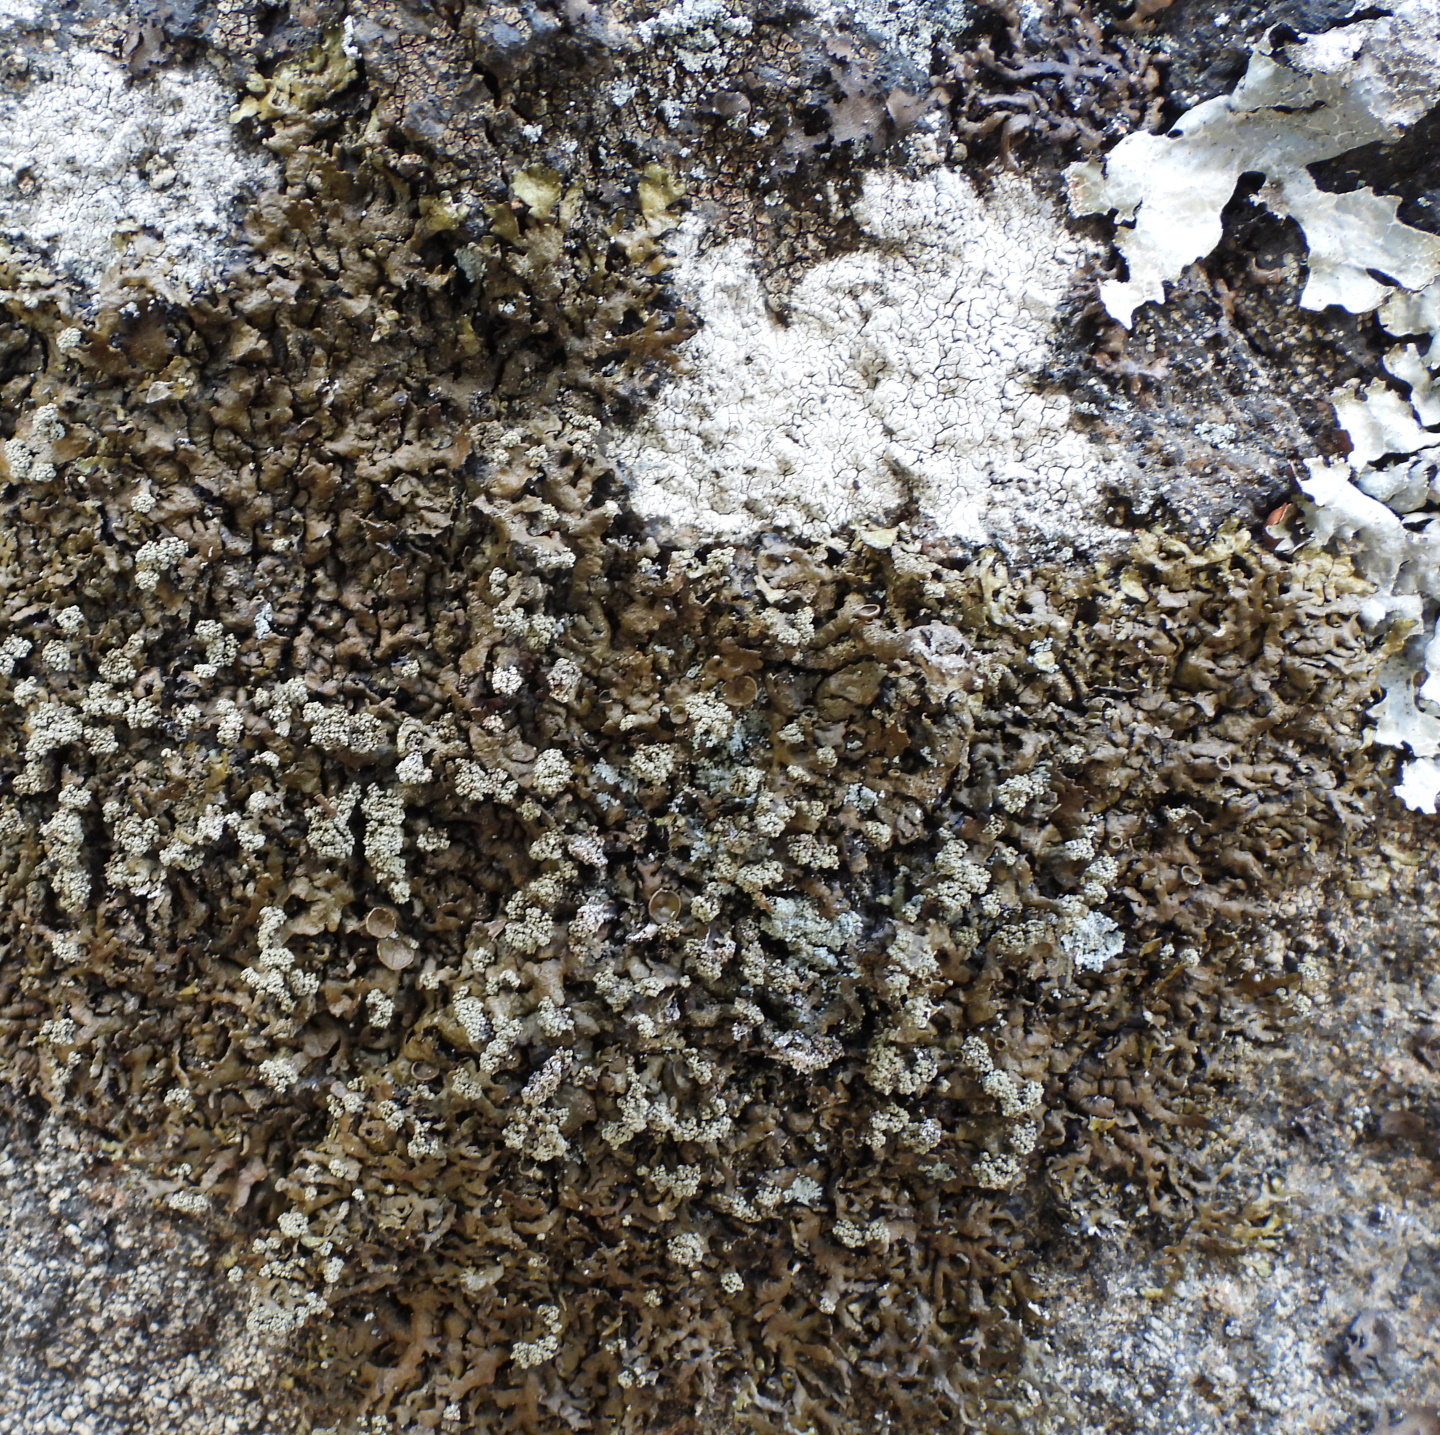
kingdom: Fungi
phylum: Ascomycota
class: Lecanoromycetes
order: Lecanorales
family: Parmeliaceae
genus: Xanthoparmelia
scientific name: Xanthoparmelia loxodes
